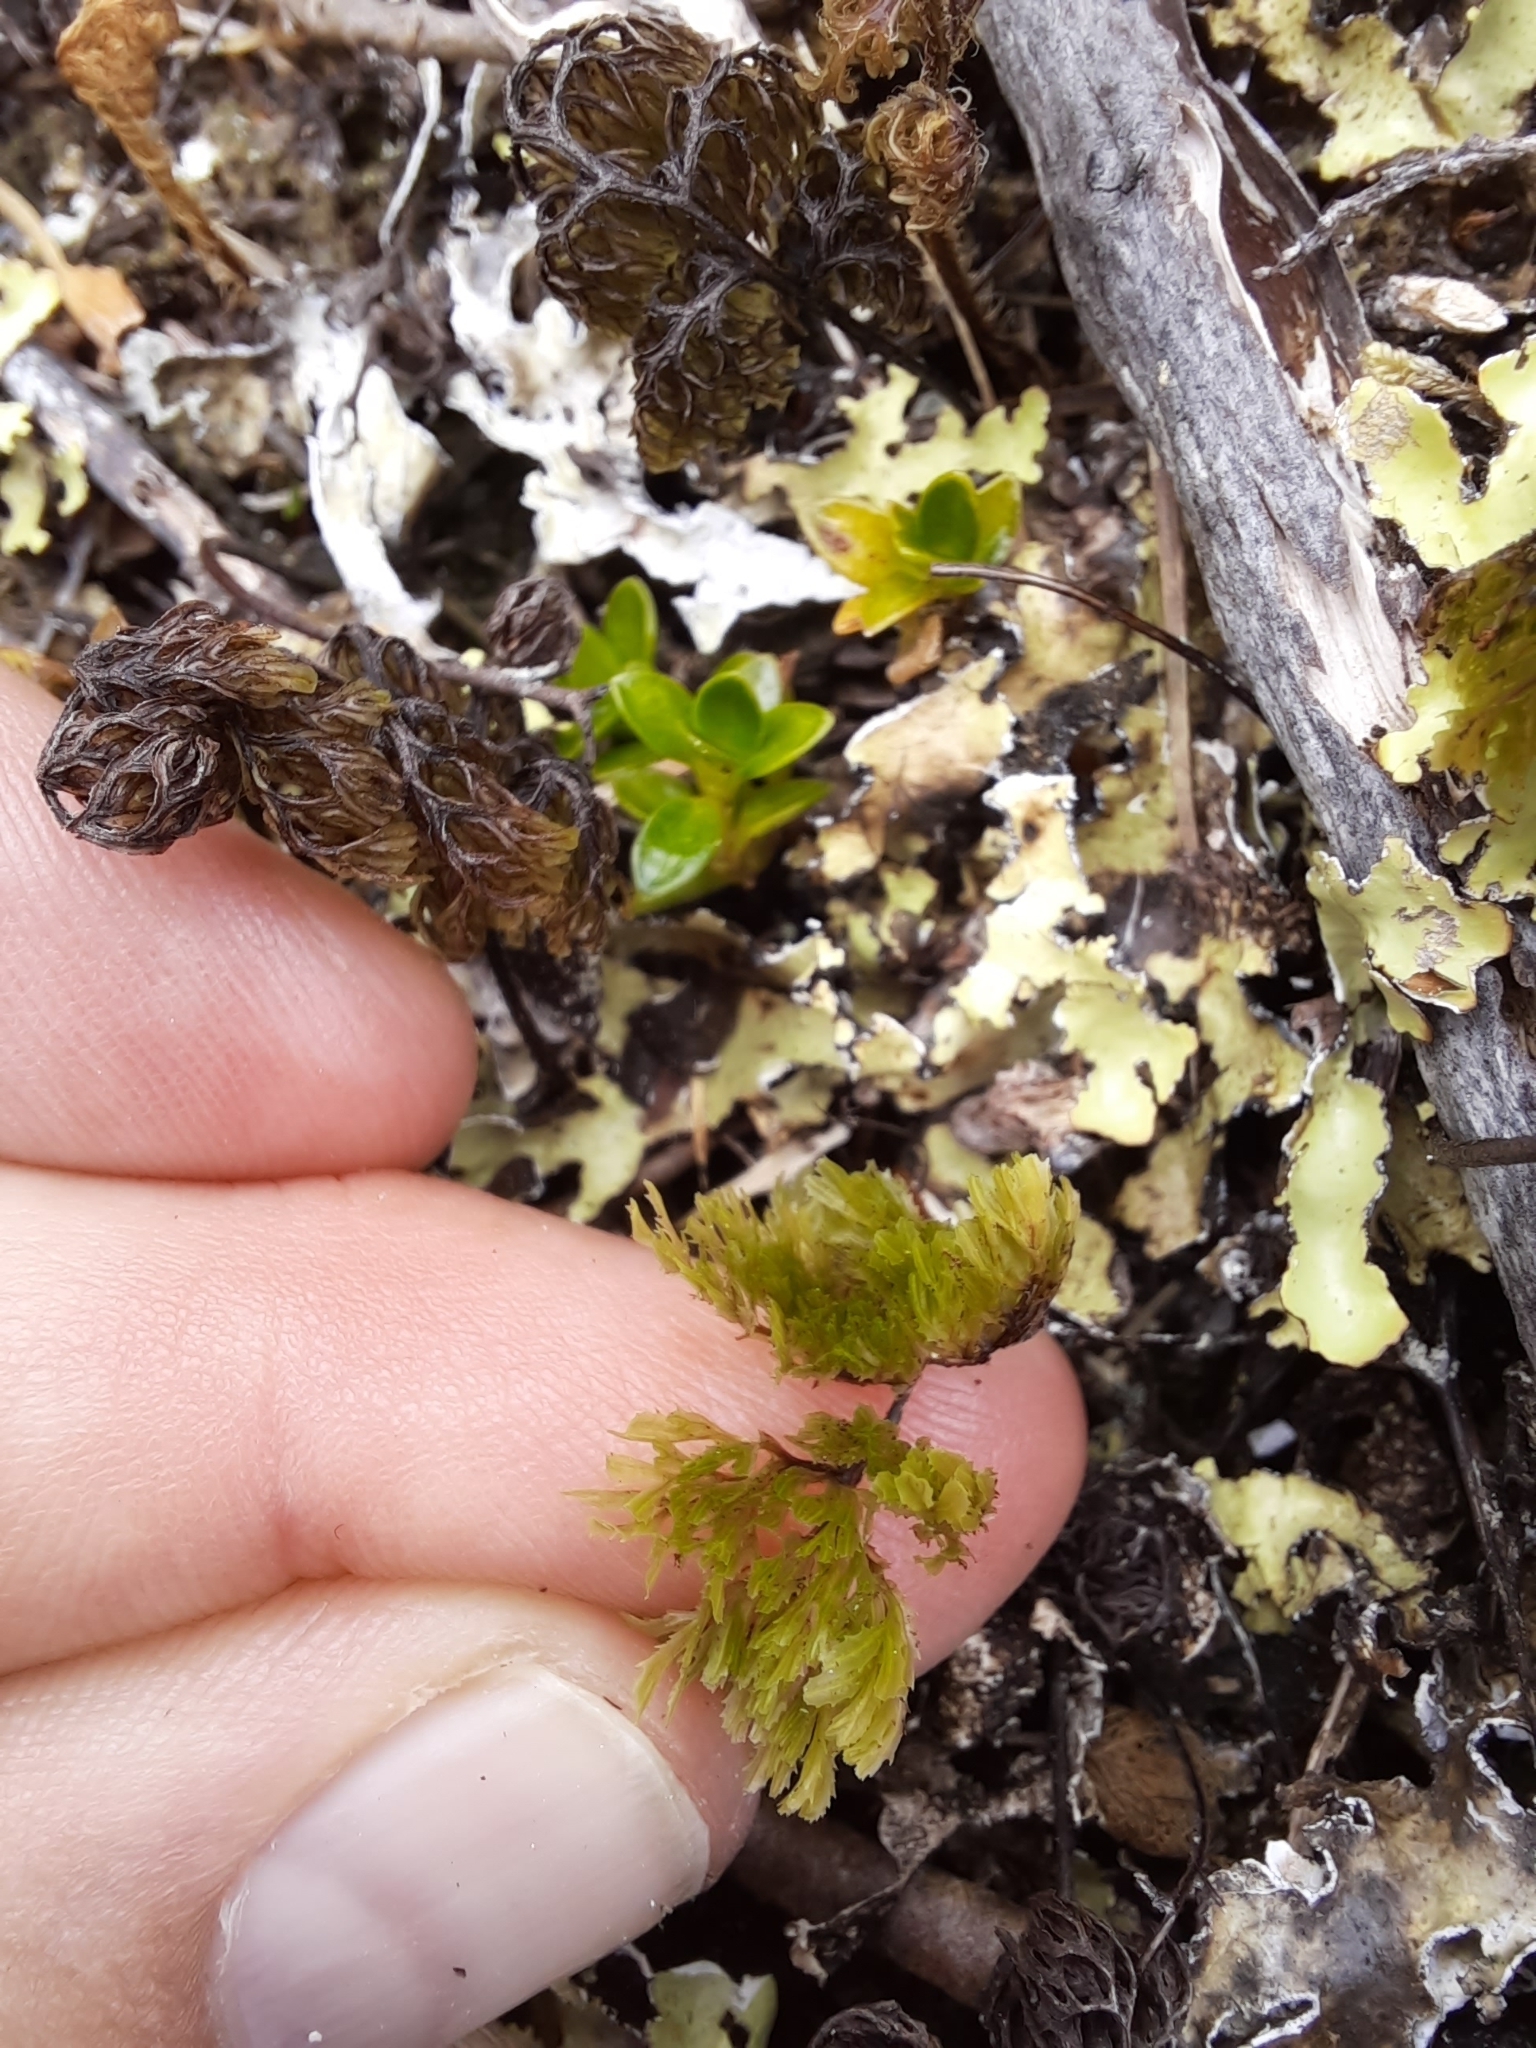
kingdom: Plantae
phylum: Tracheophyta
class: Polypodiopsida
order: Hymenophyllales
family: Hymenophyllaceae
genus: Hymenophyllum
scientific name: Hymenophyllum multifidum
